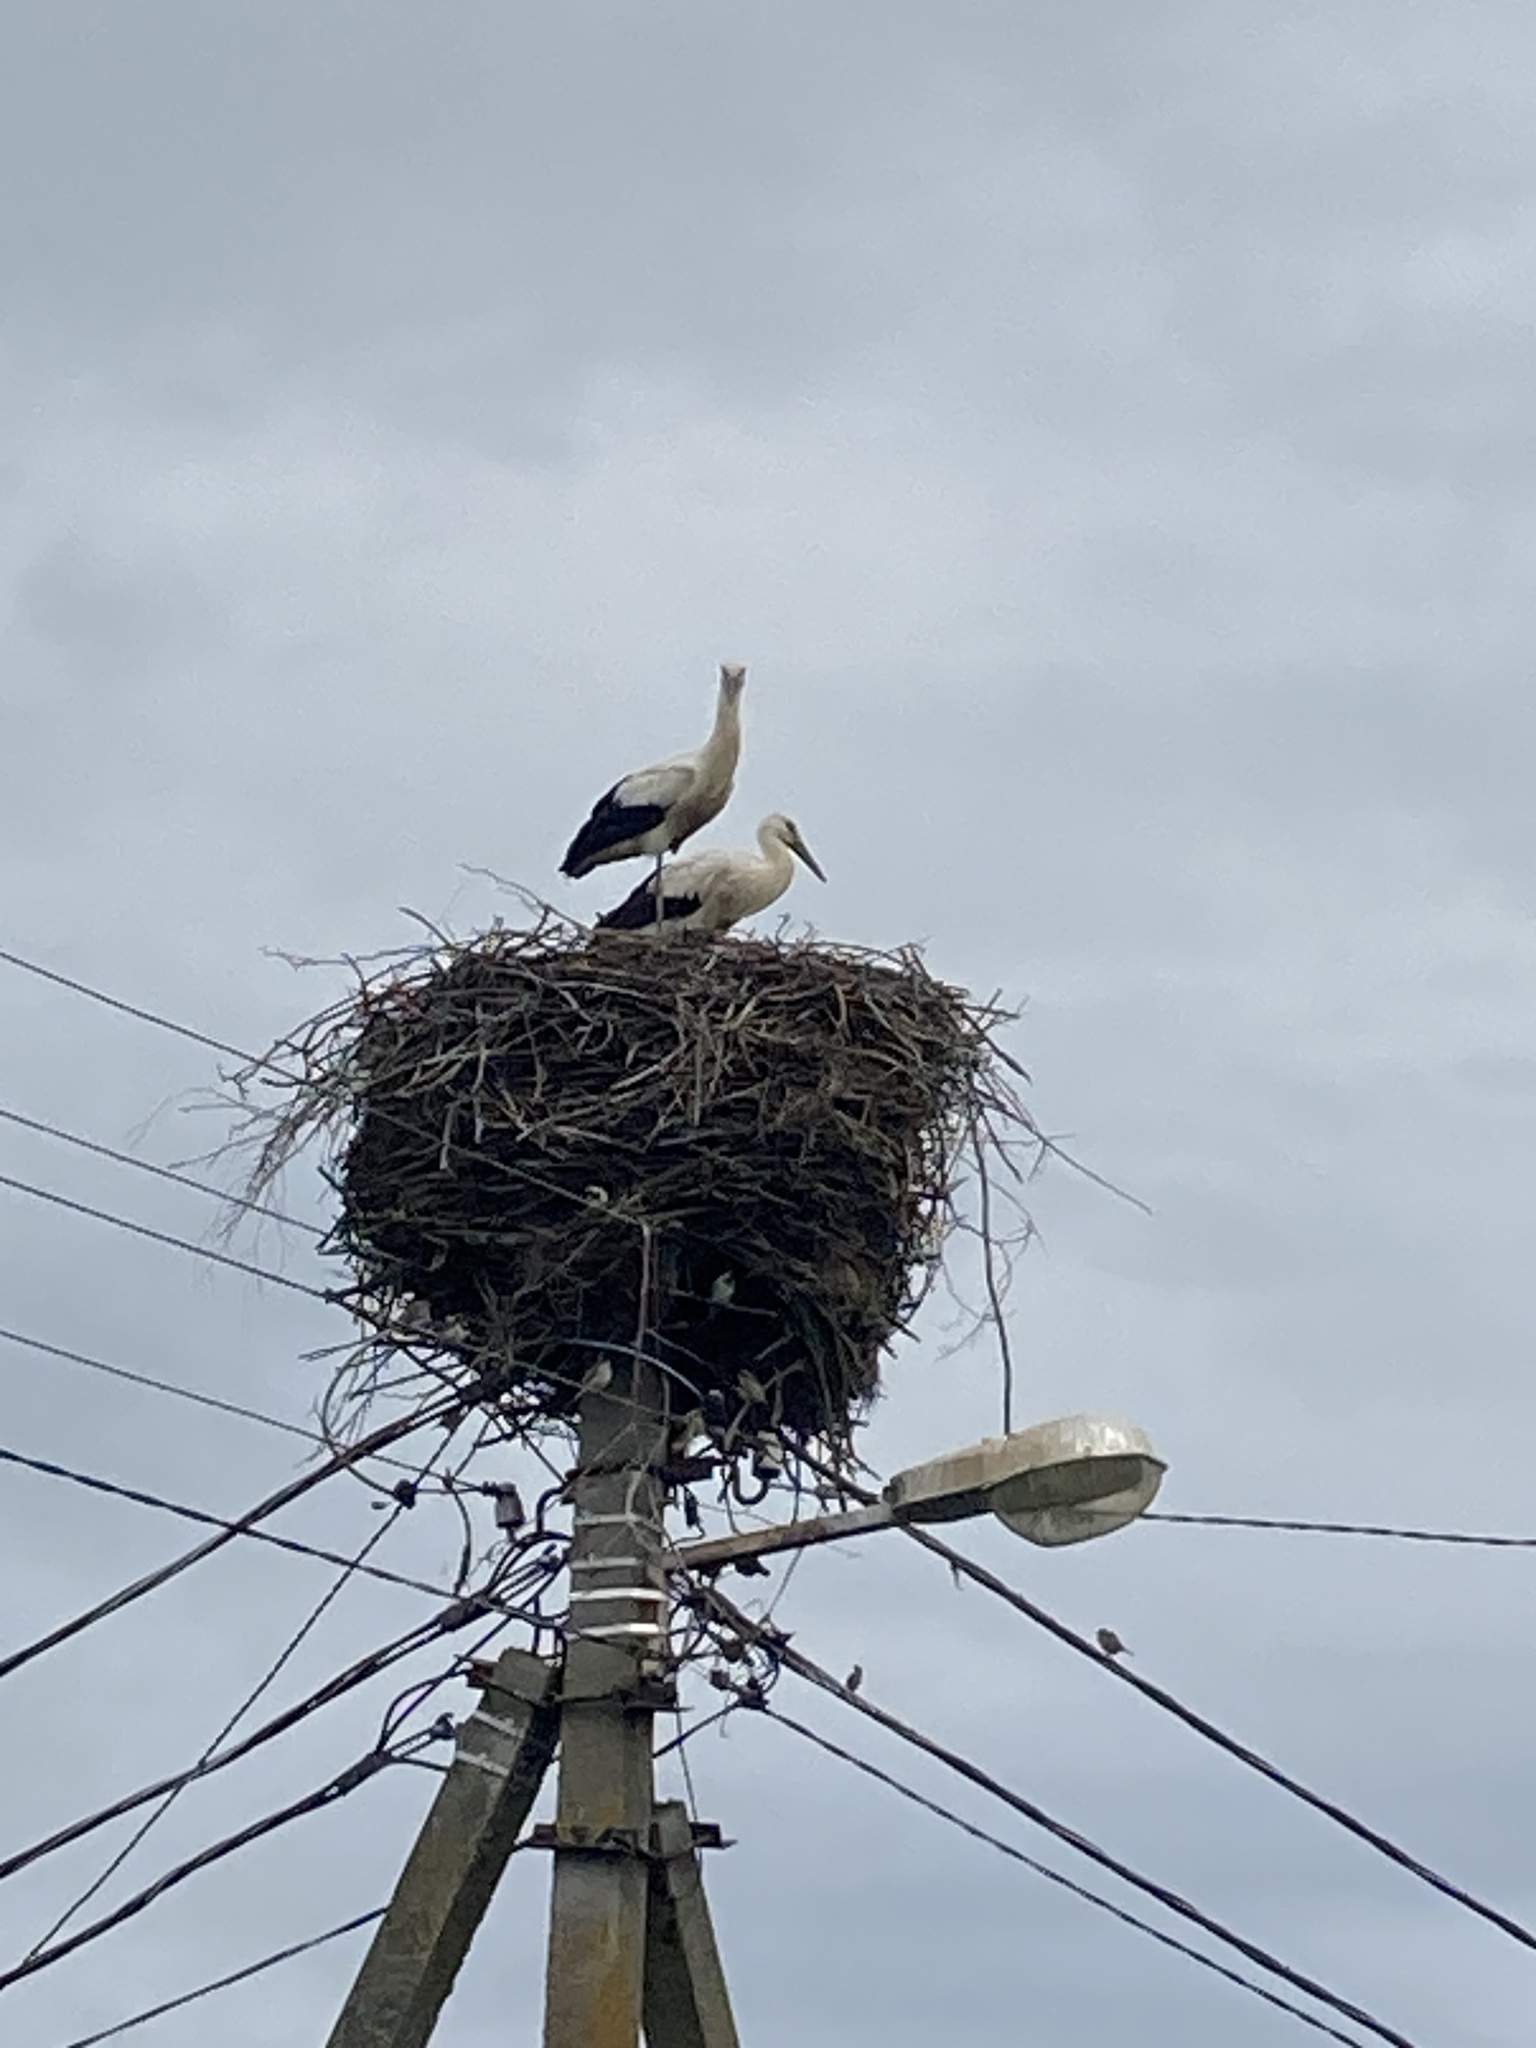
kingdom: Animalia
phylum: Chordata
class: Aves
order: Ciconiiformes
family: Ciconiidae
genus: Ciconia
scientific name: Ciconia ciconia
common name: White stork
